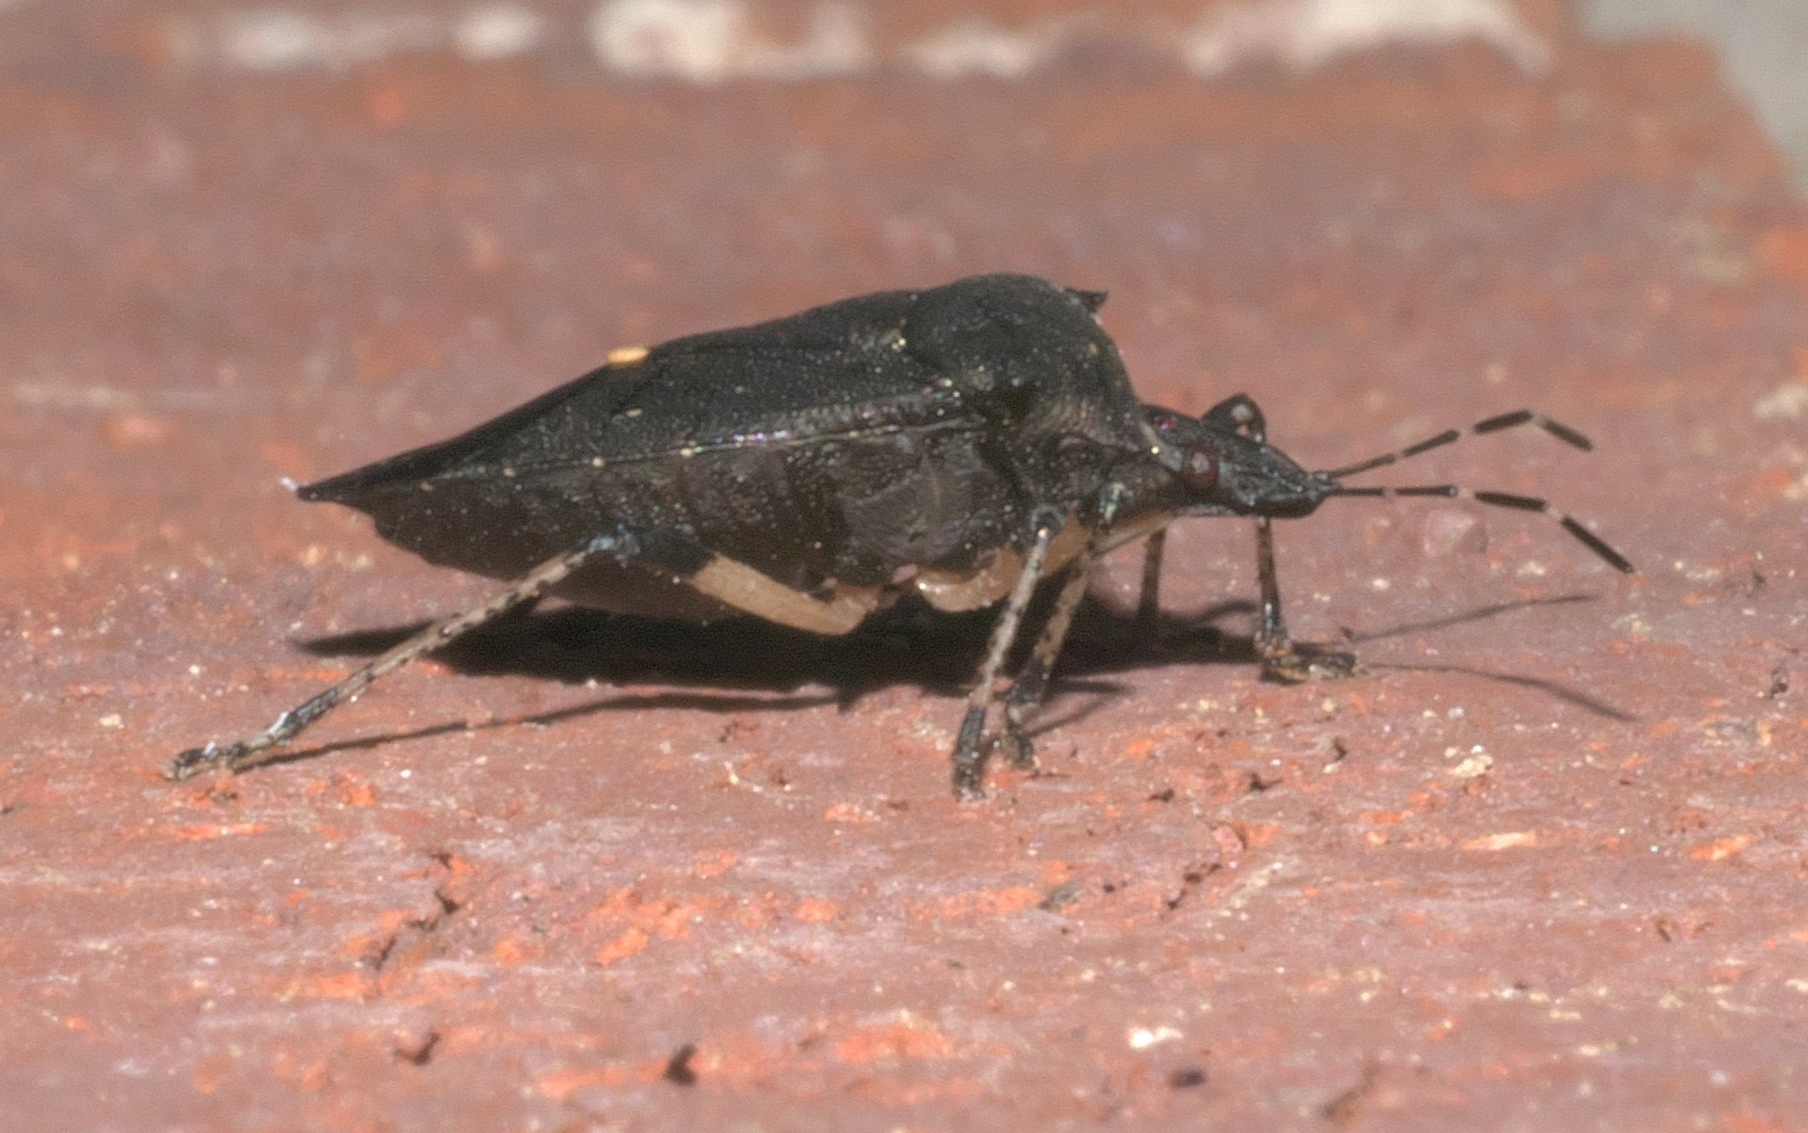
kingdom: Animalia
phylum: Arthropoda
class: Insecta
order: Hemiptera
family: Pentatomidae
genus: Proxys
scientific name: Proxys punctulatus
